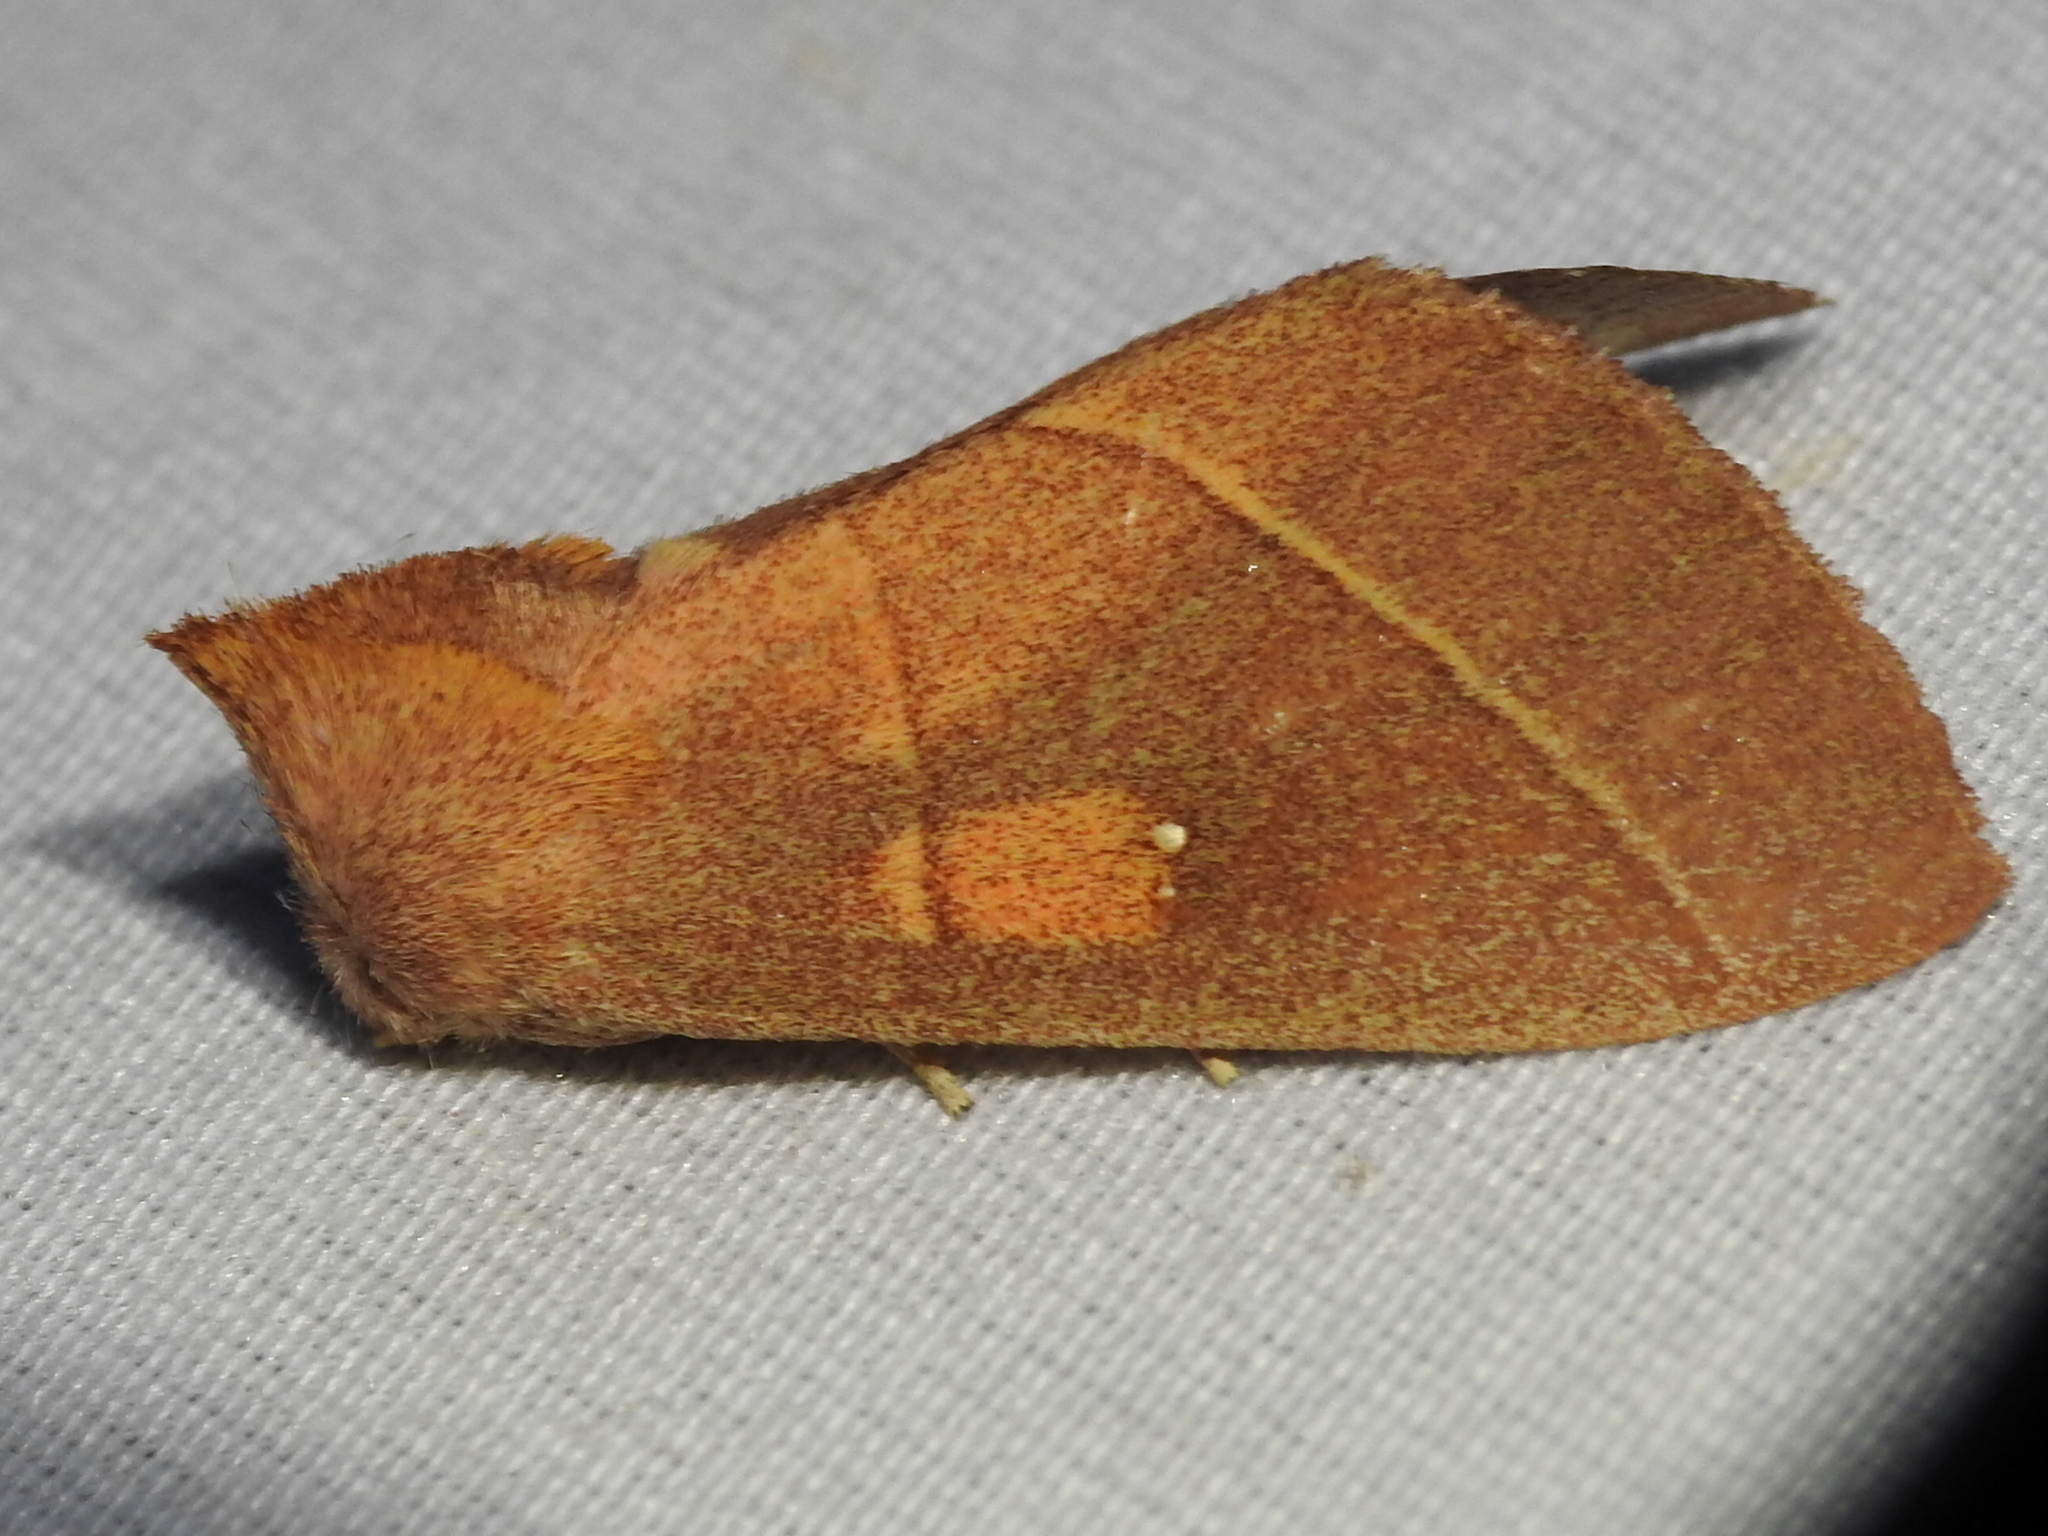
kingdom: Animalia
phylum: Arthropoda
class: Insecta
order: Lepidoptera
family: Notodontidae
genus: Nadata
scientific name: Nadata gibbosa
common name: White-dotted prominent
